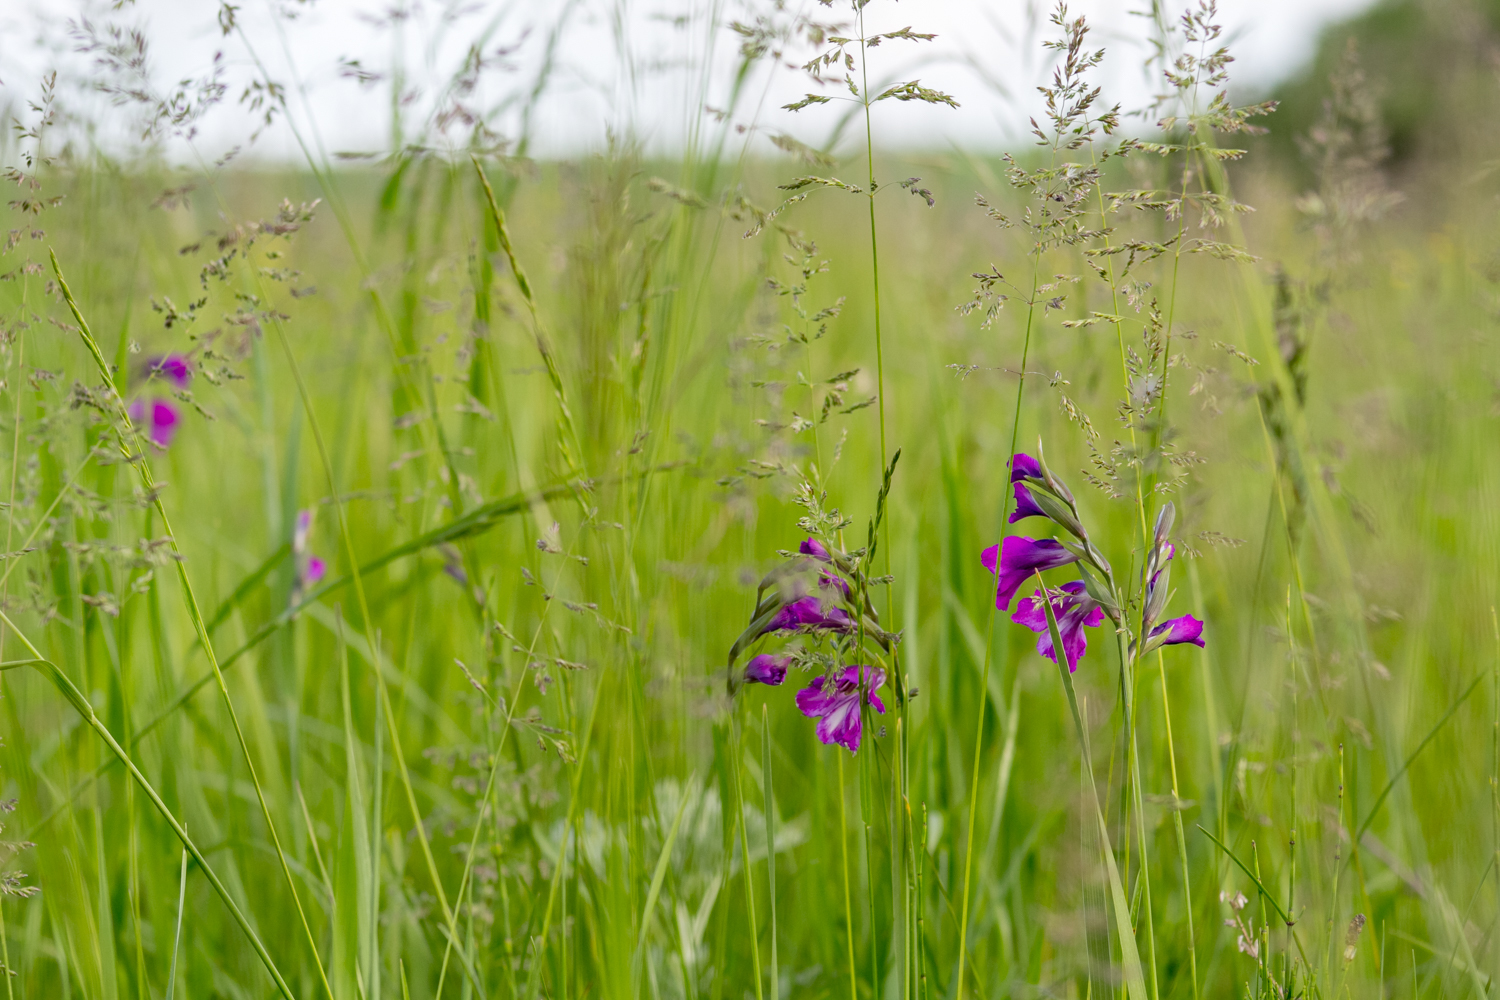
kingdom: Plantae
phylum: Tracheophyta
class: Liliopsida
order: Asparagales
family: Iridaceae
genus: Gladiolus
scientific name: Gladiolus tenuis
